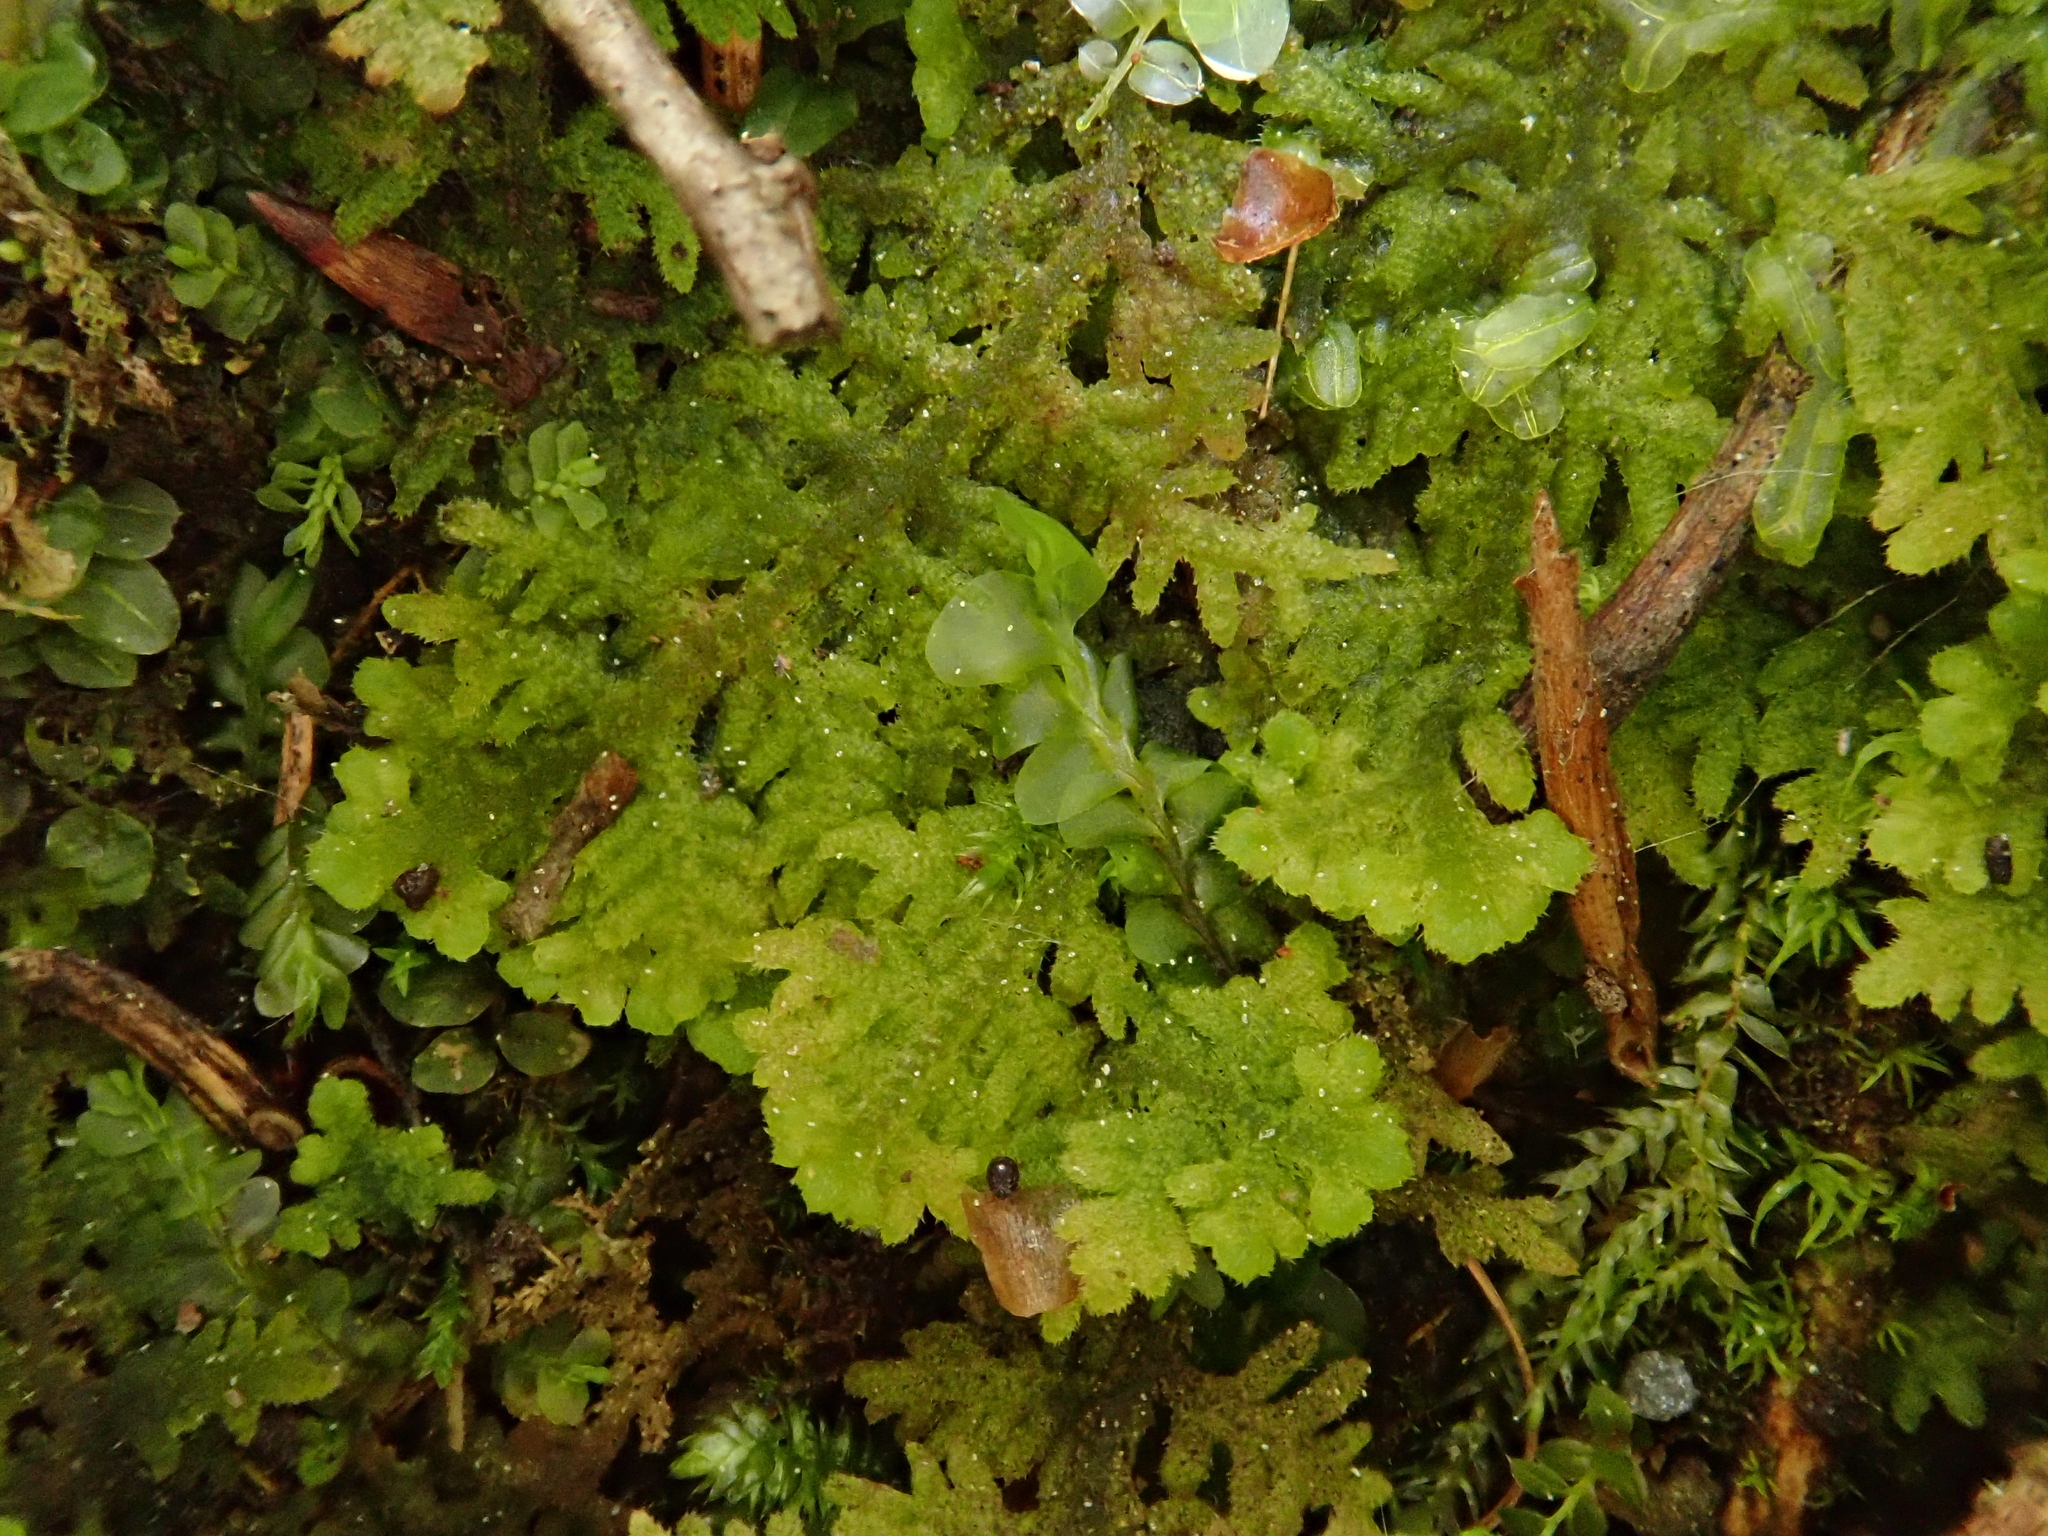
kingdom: Plantae
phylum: Marchantiophyta
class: Jungermanniopsida
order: Jungermanniales
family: Trichocoleaceae
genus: Trichocolea
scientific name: Trichocolea tomentella
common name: Woolly liverwort
